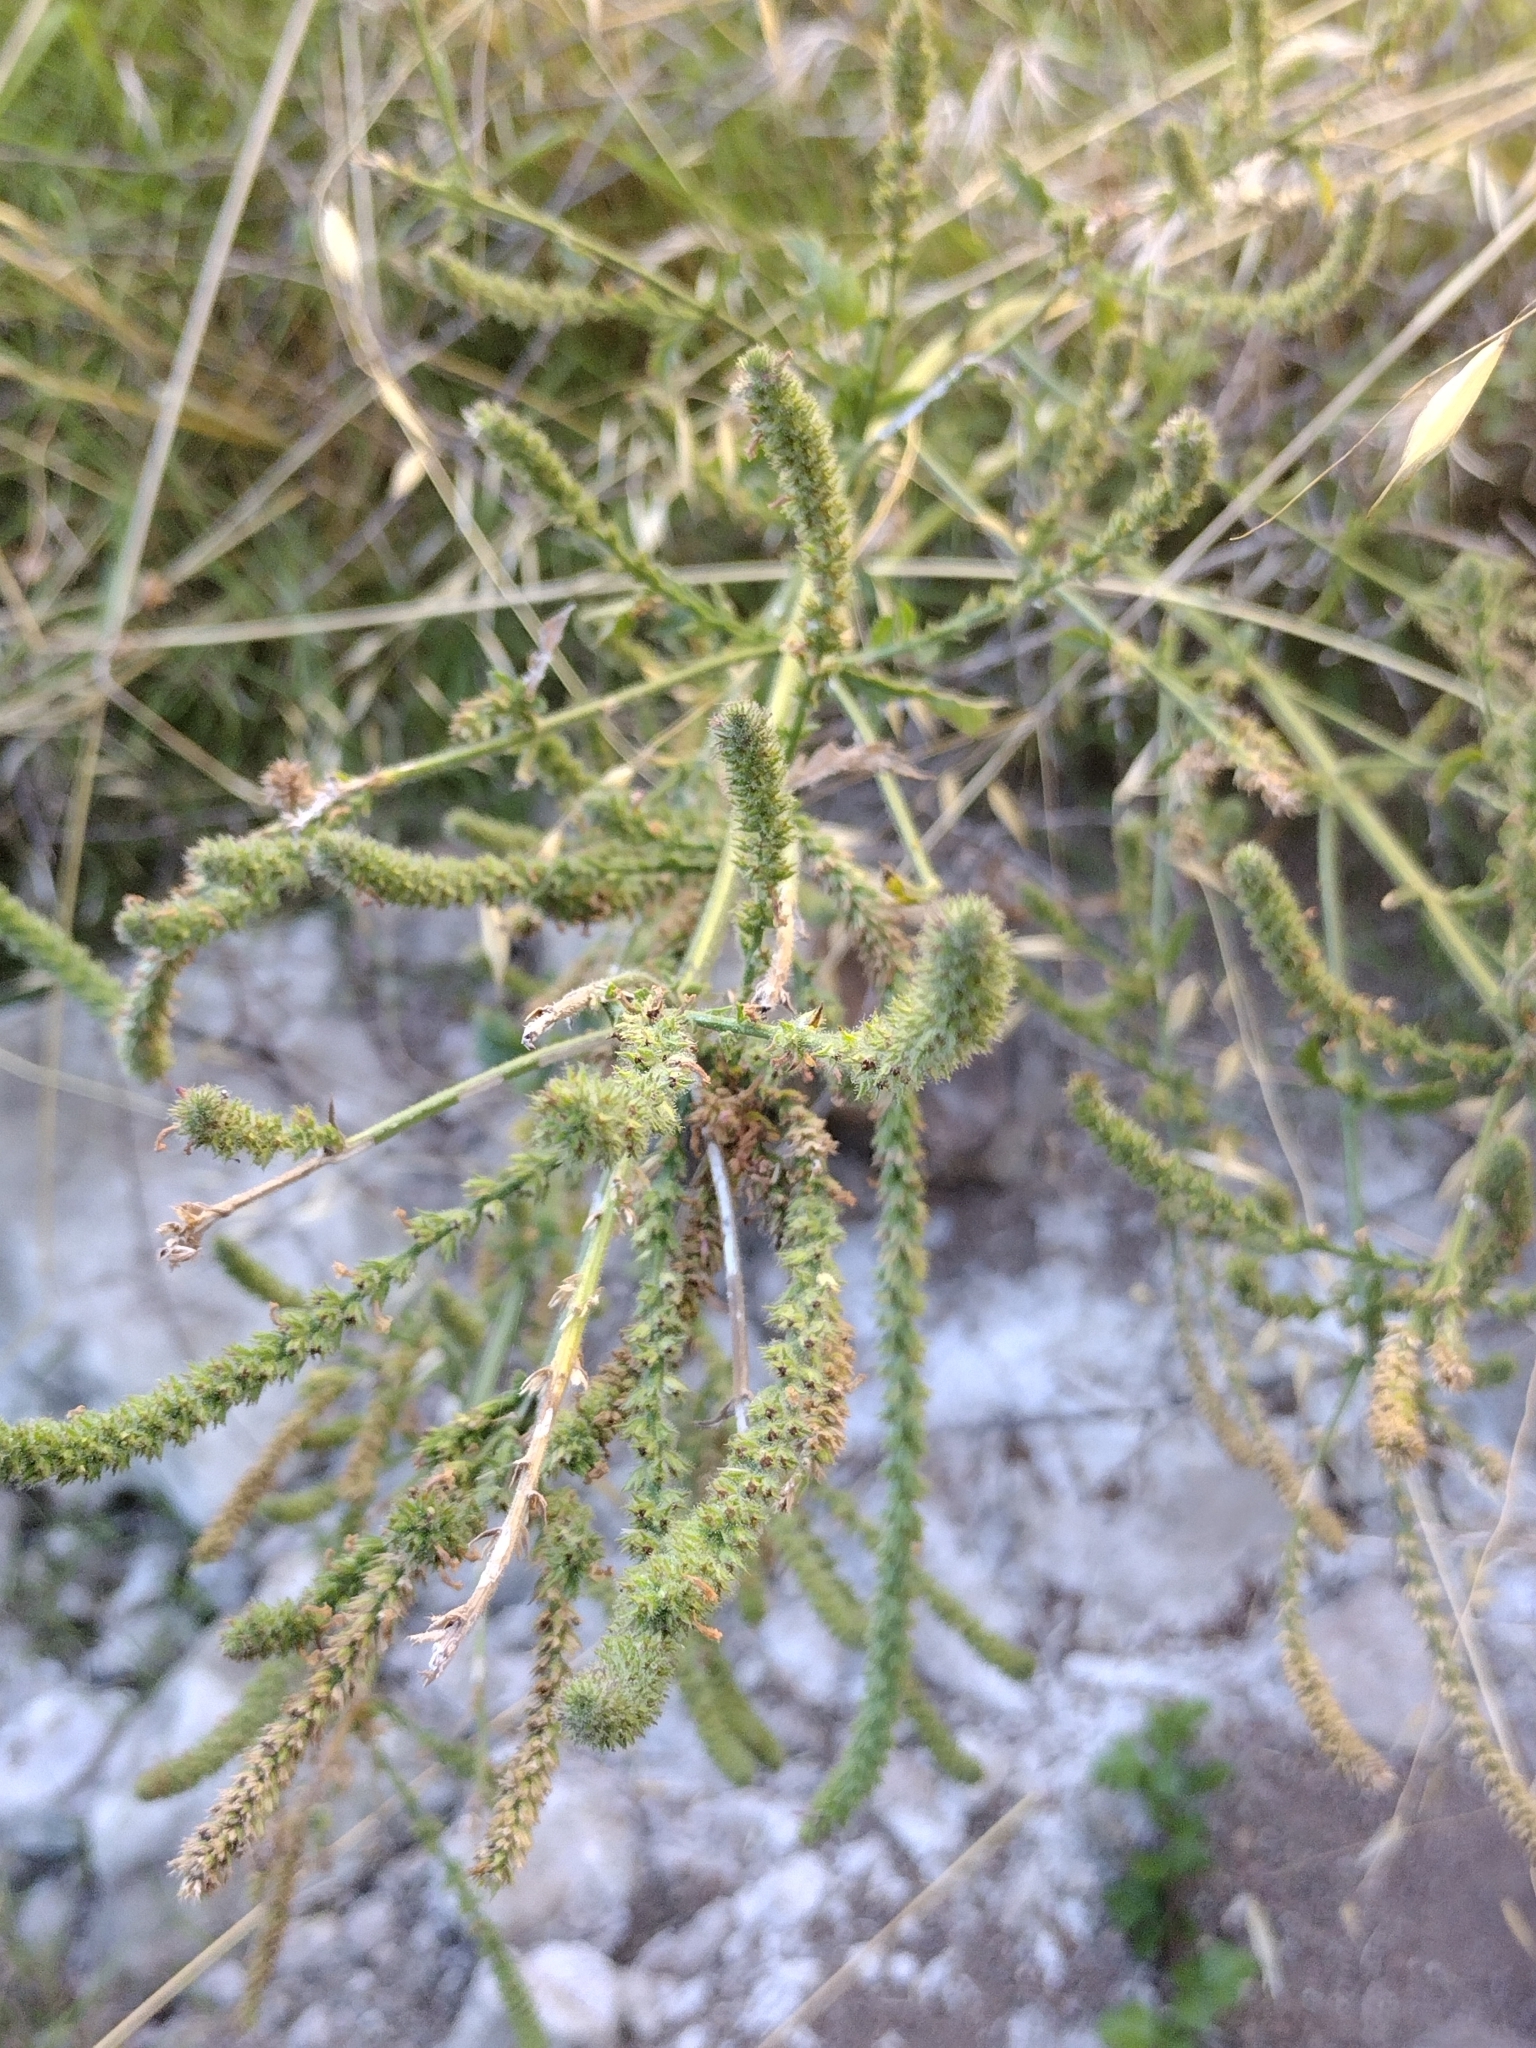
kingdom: Plantae
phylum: Tracheophyta
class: Magnoliopsida
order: Lamiales
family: Verbenaceae
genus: Verbena
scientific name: Verbena lasiostachys
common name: Vervain
